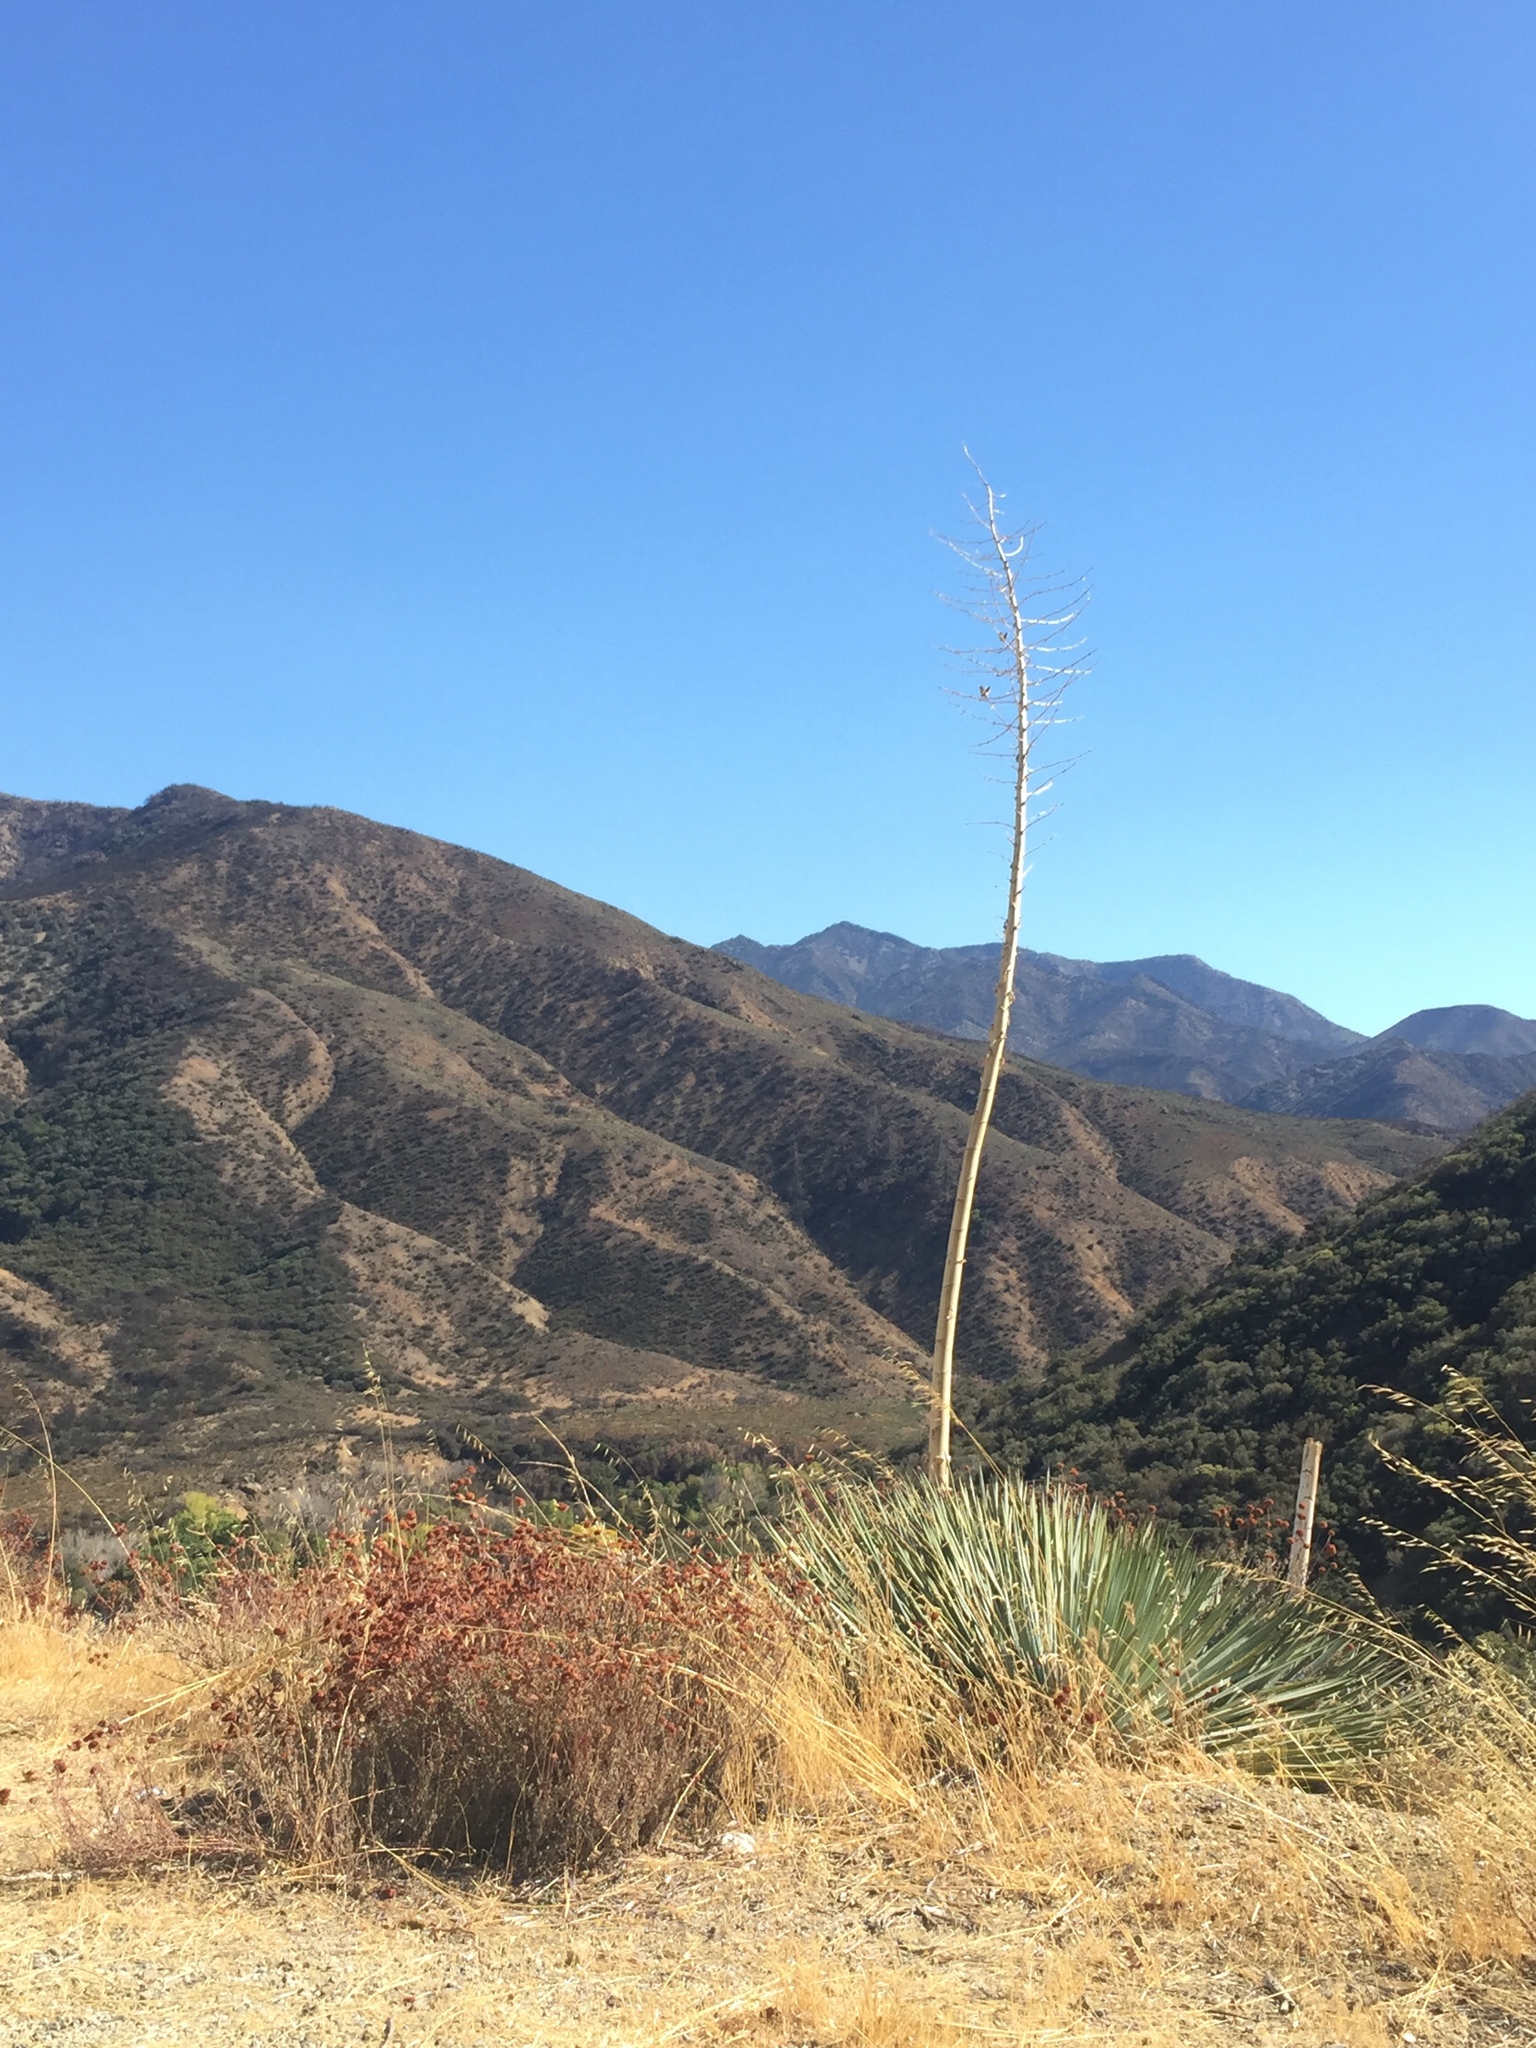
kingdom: Plantae
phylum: Tracheophyta
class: Liliopsida
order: Asparagales
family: Asparagaceae
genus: Hesperoyucca
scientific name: Hesperoyucca whipplei
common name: Our lord's-candle
